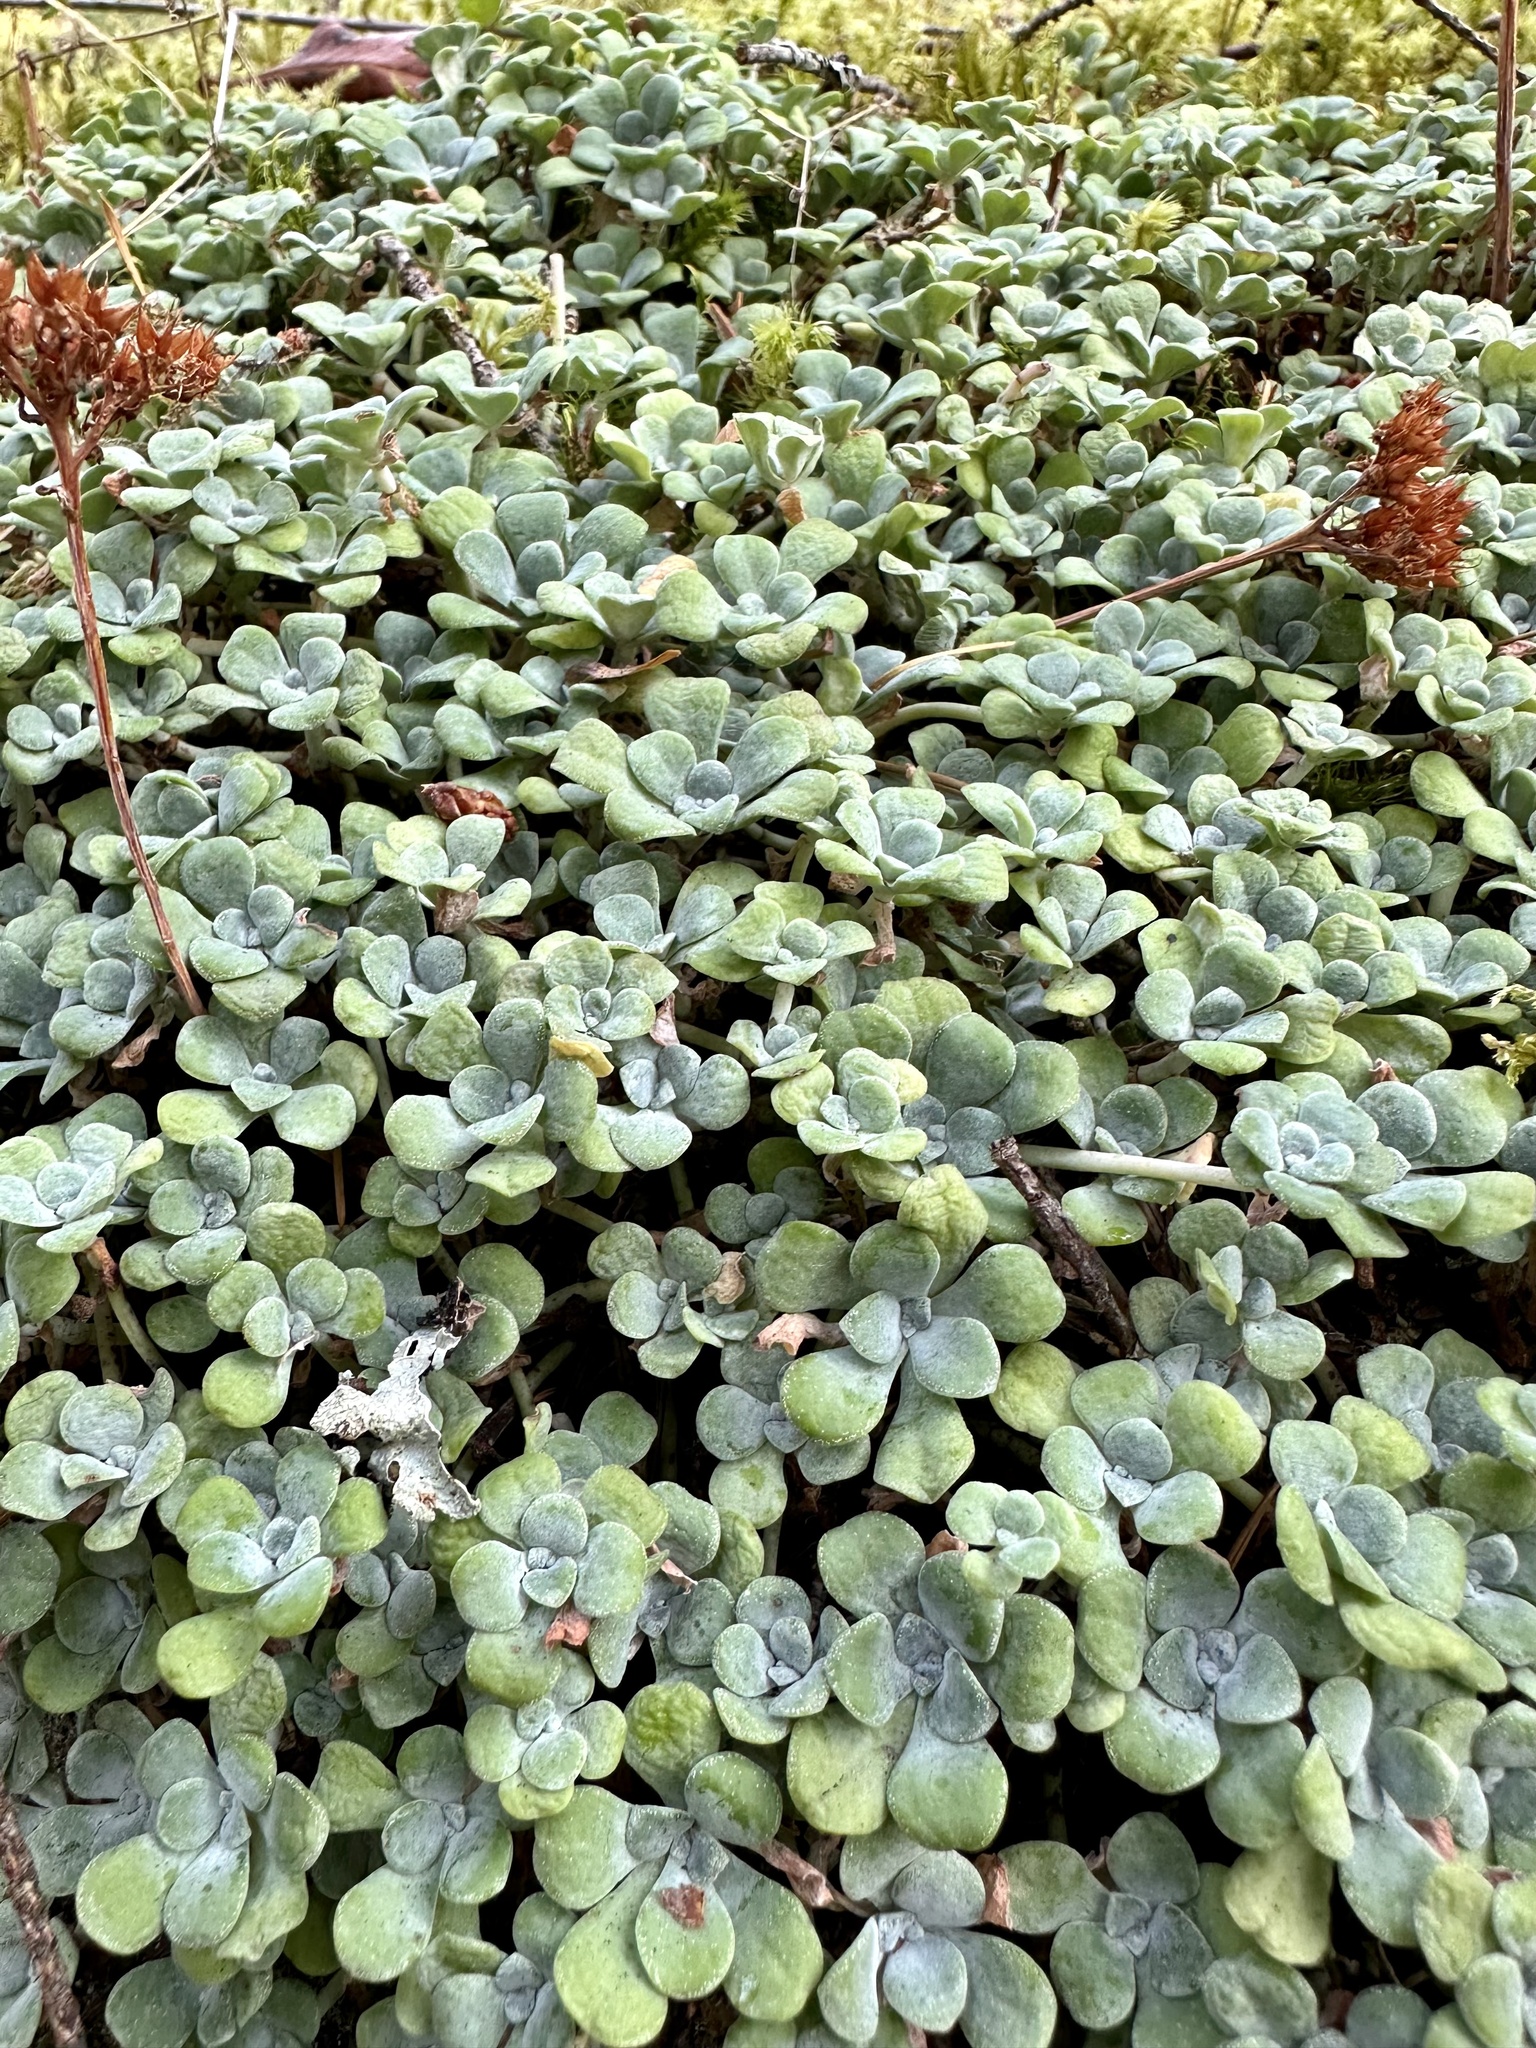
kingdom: Plantae
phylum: Tracheophyta
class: Magnoliopsida
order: Saxifragales
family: Crassulaceae
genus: Sedum
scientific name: Sedum spathulifolium
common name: Colorado stonecrop
